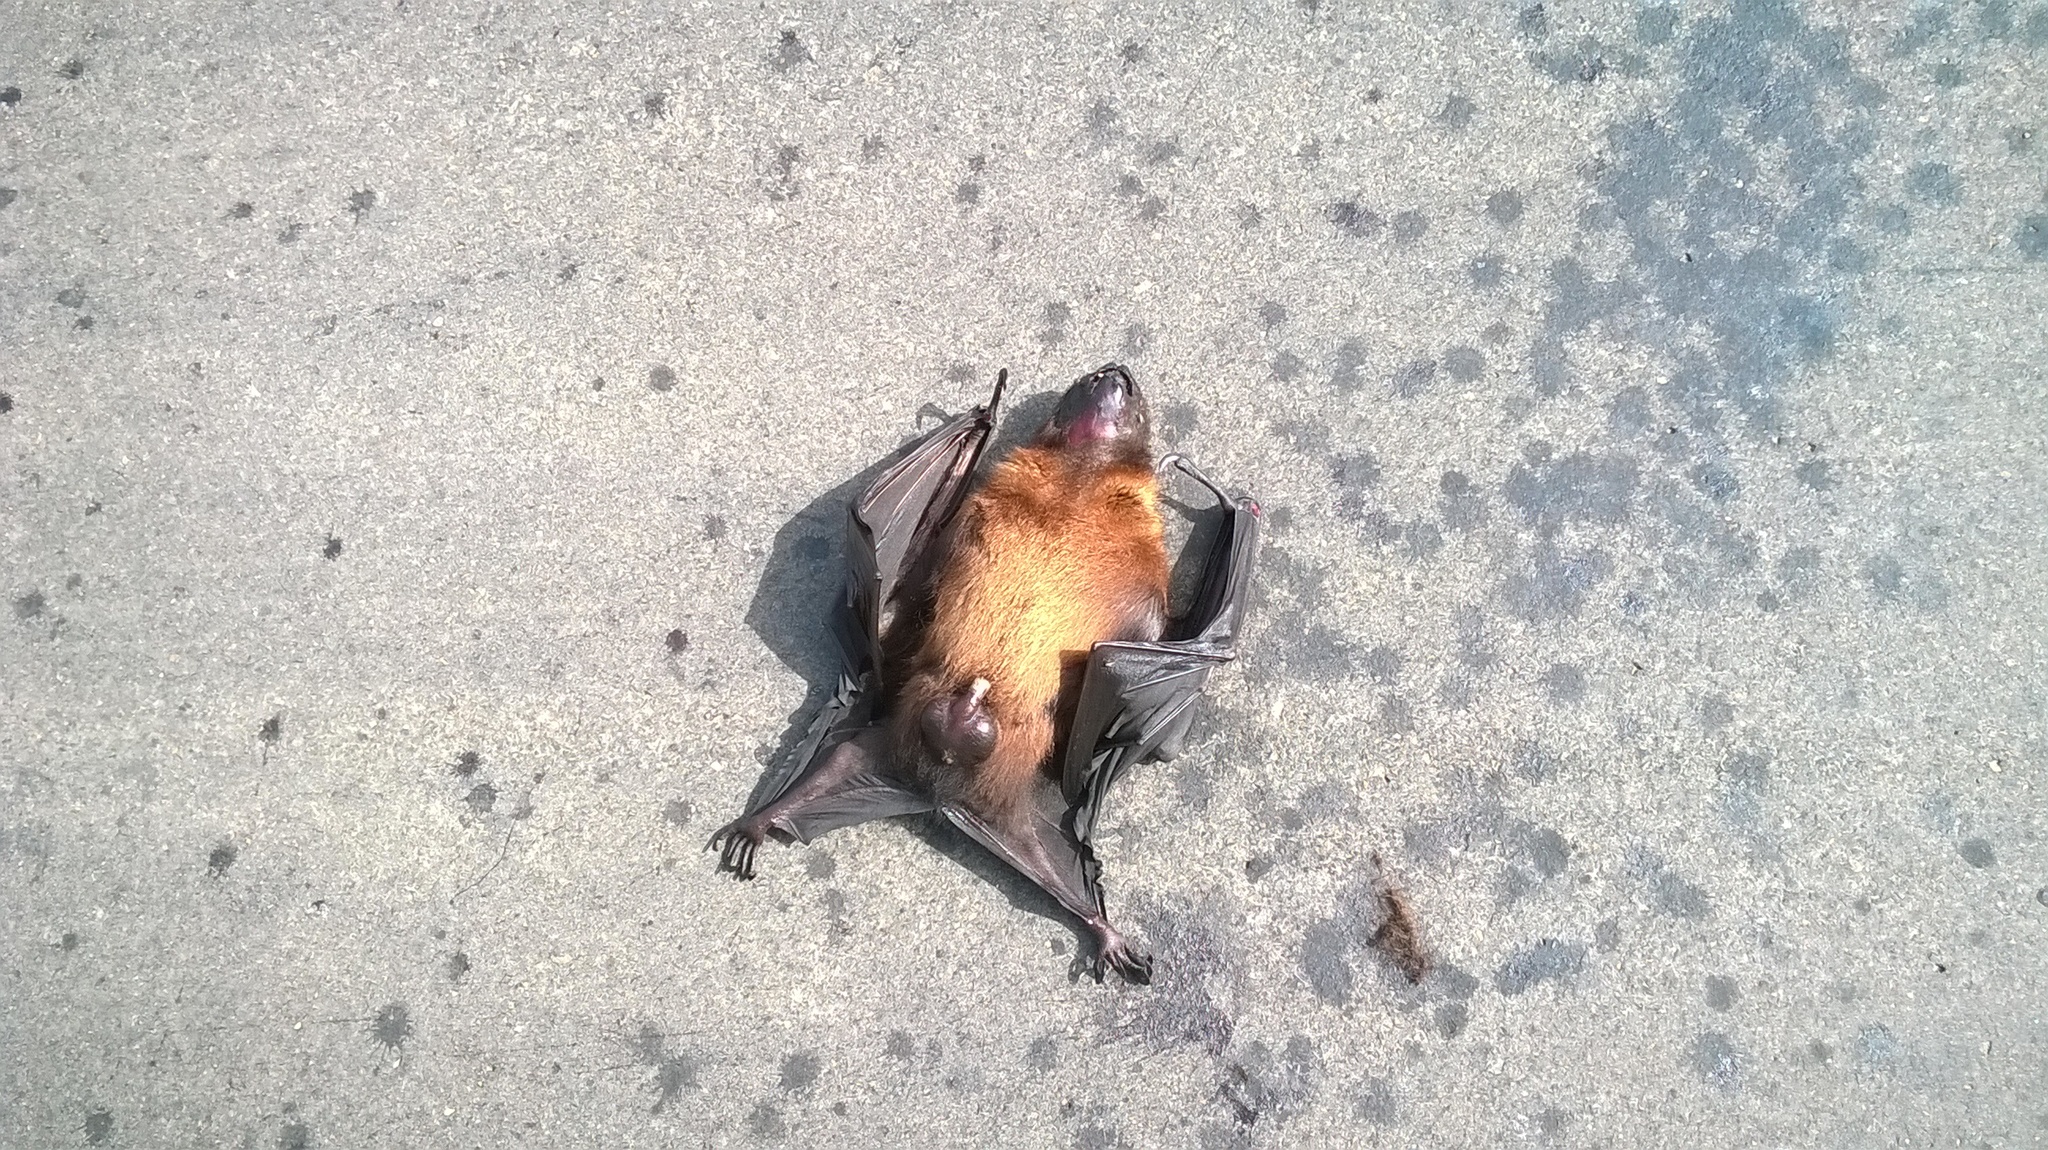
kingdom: Animalia
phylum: Chordata
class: Mammalia
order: Chiroptera
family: Pteropodidae
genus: Pteropus
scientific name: Pteropus vampyrus
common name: Large flying fox
